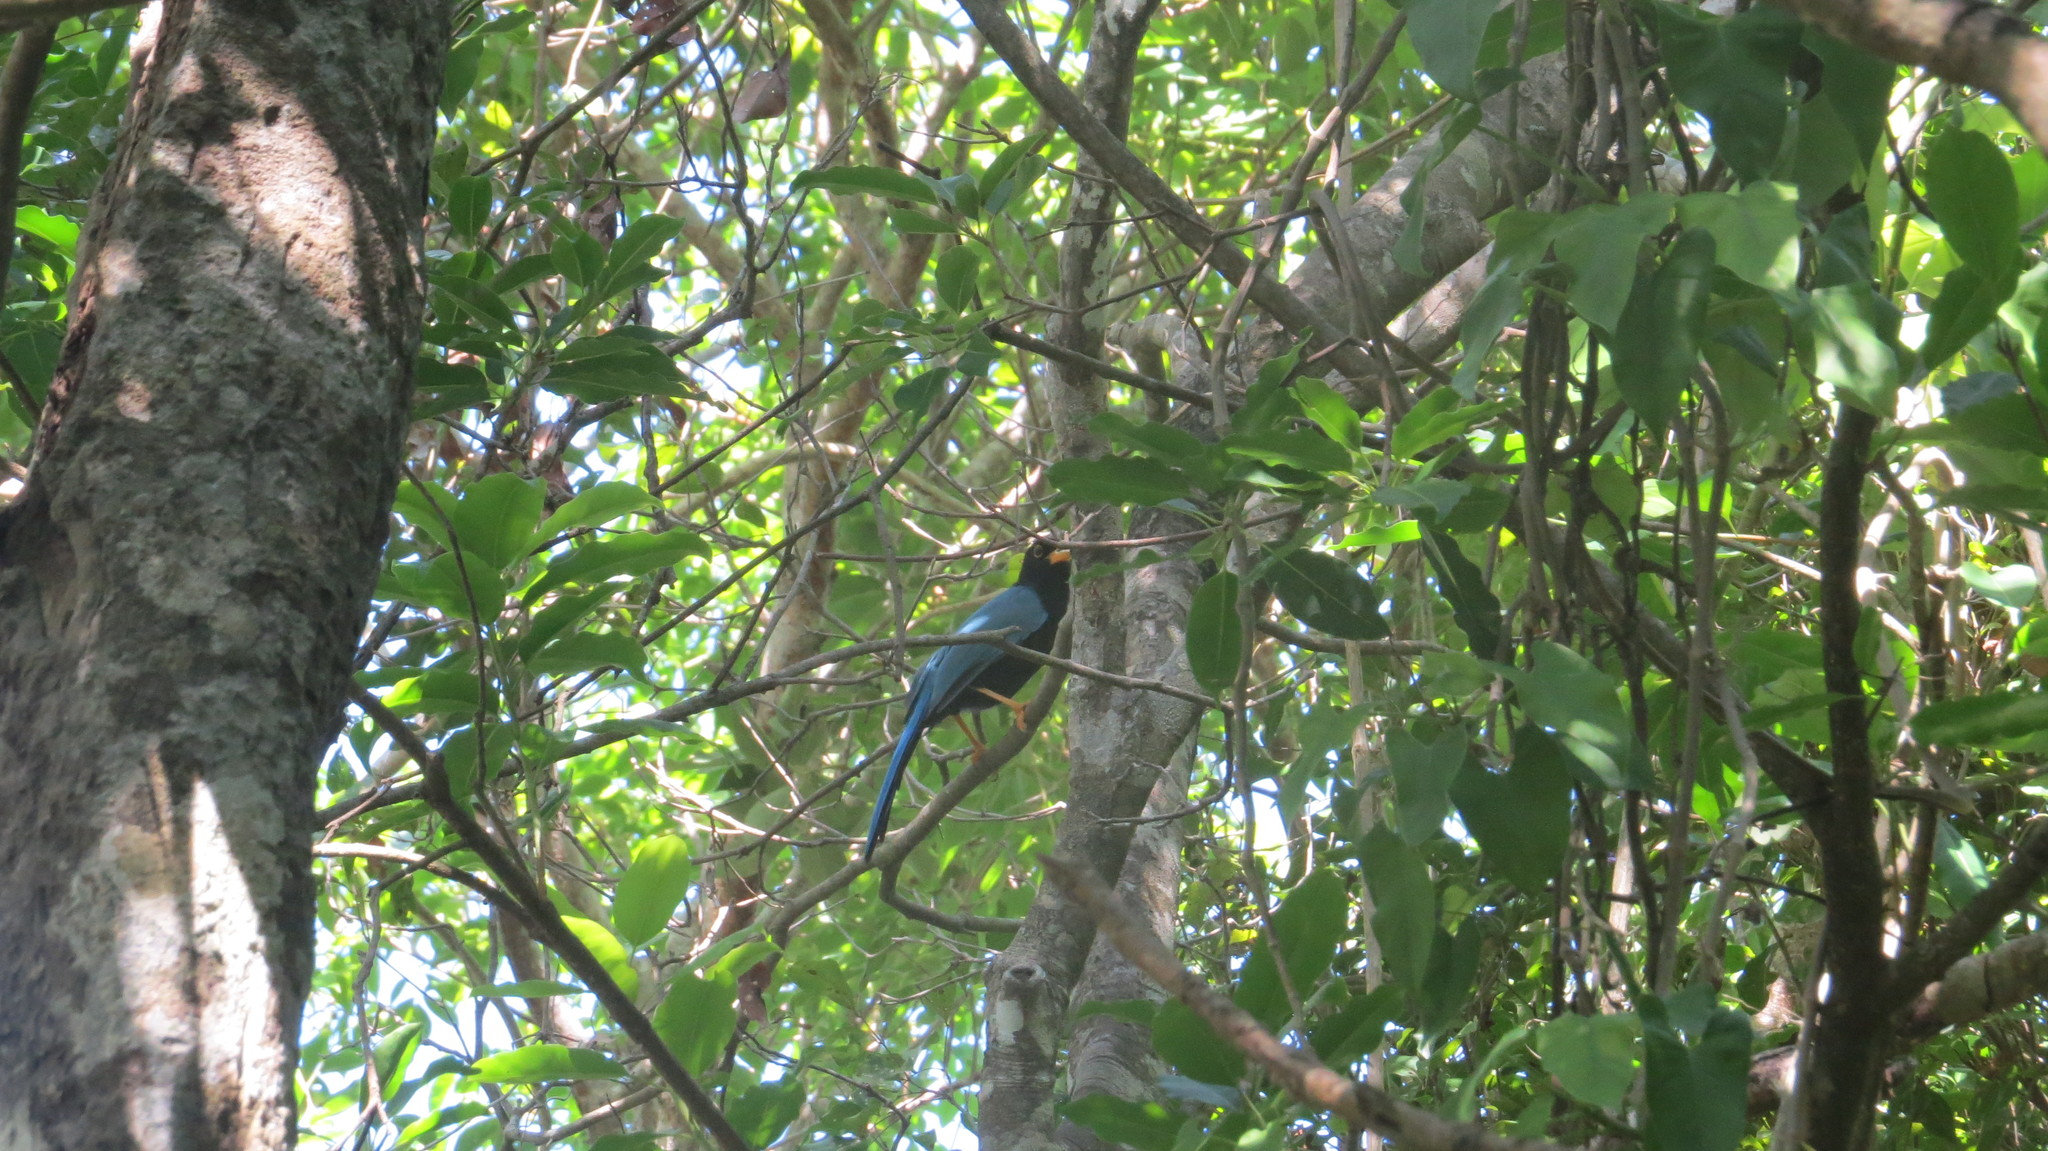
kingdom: Animalia
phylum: Chordata
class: Aves
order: Passeriformes
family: Corvidae
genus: Cyanocorax
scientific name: Cyanocorax yucatanicus
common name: Yucatan jay
